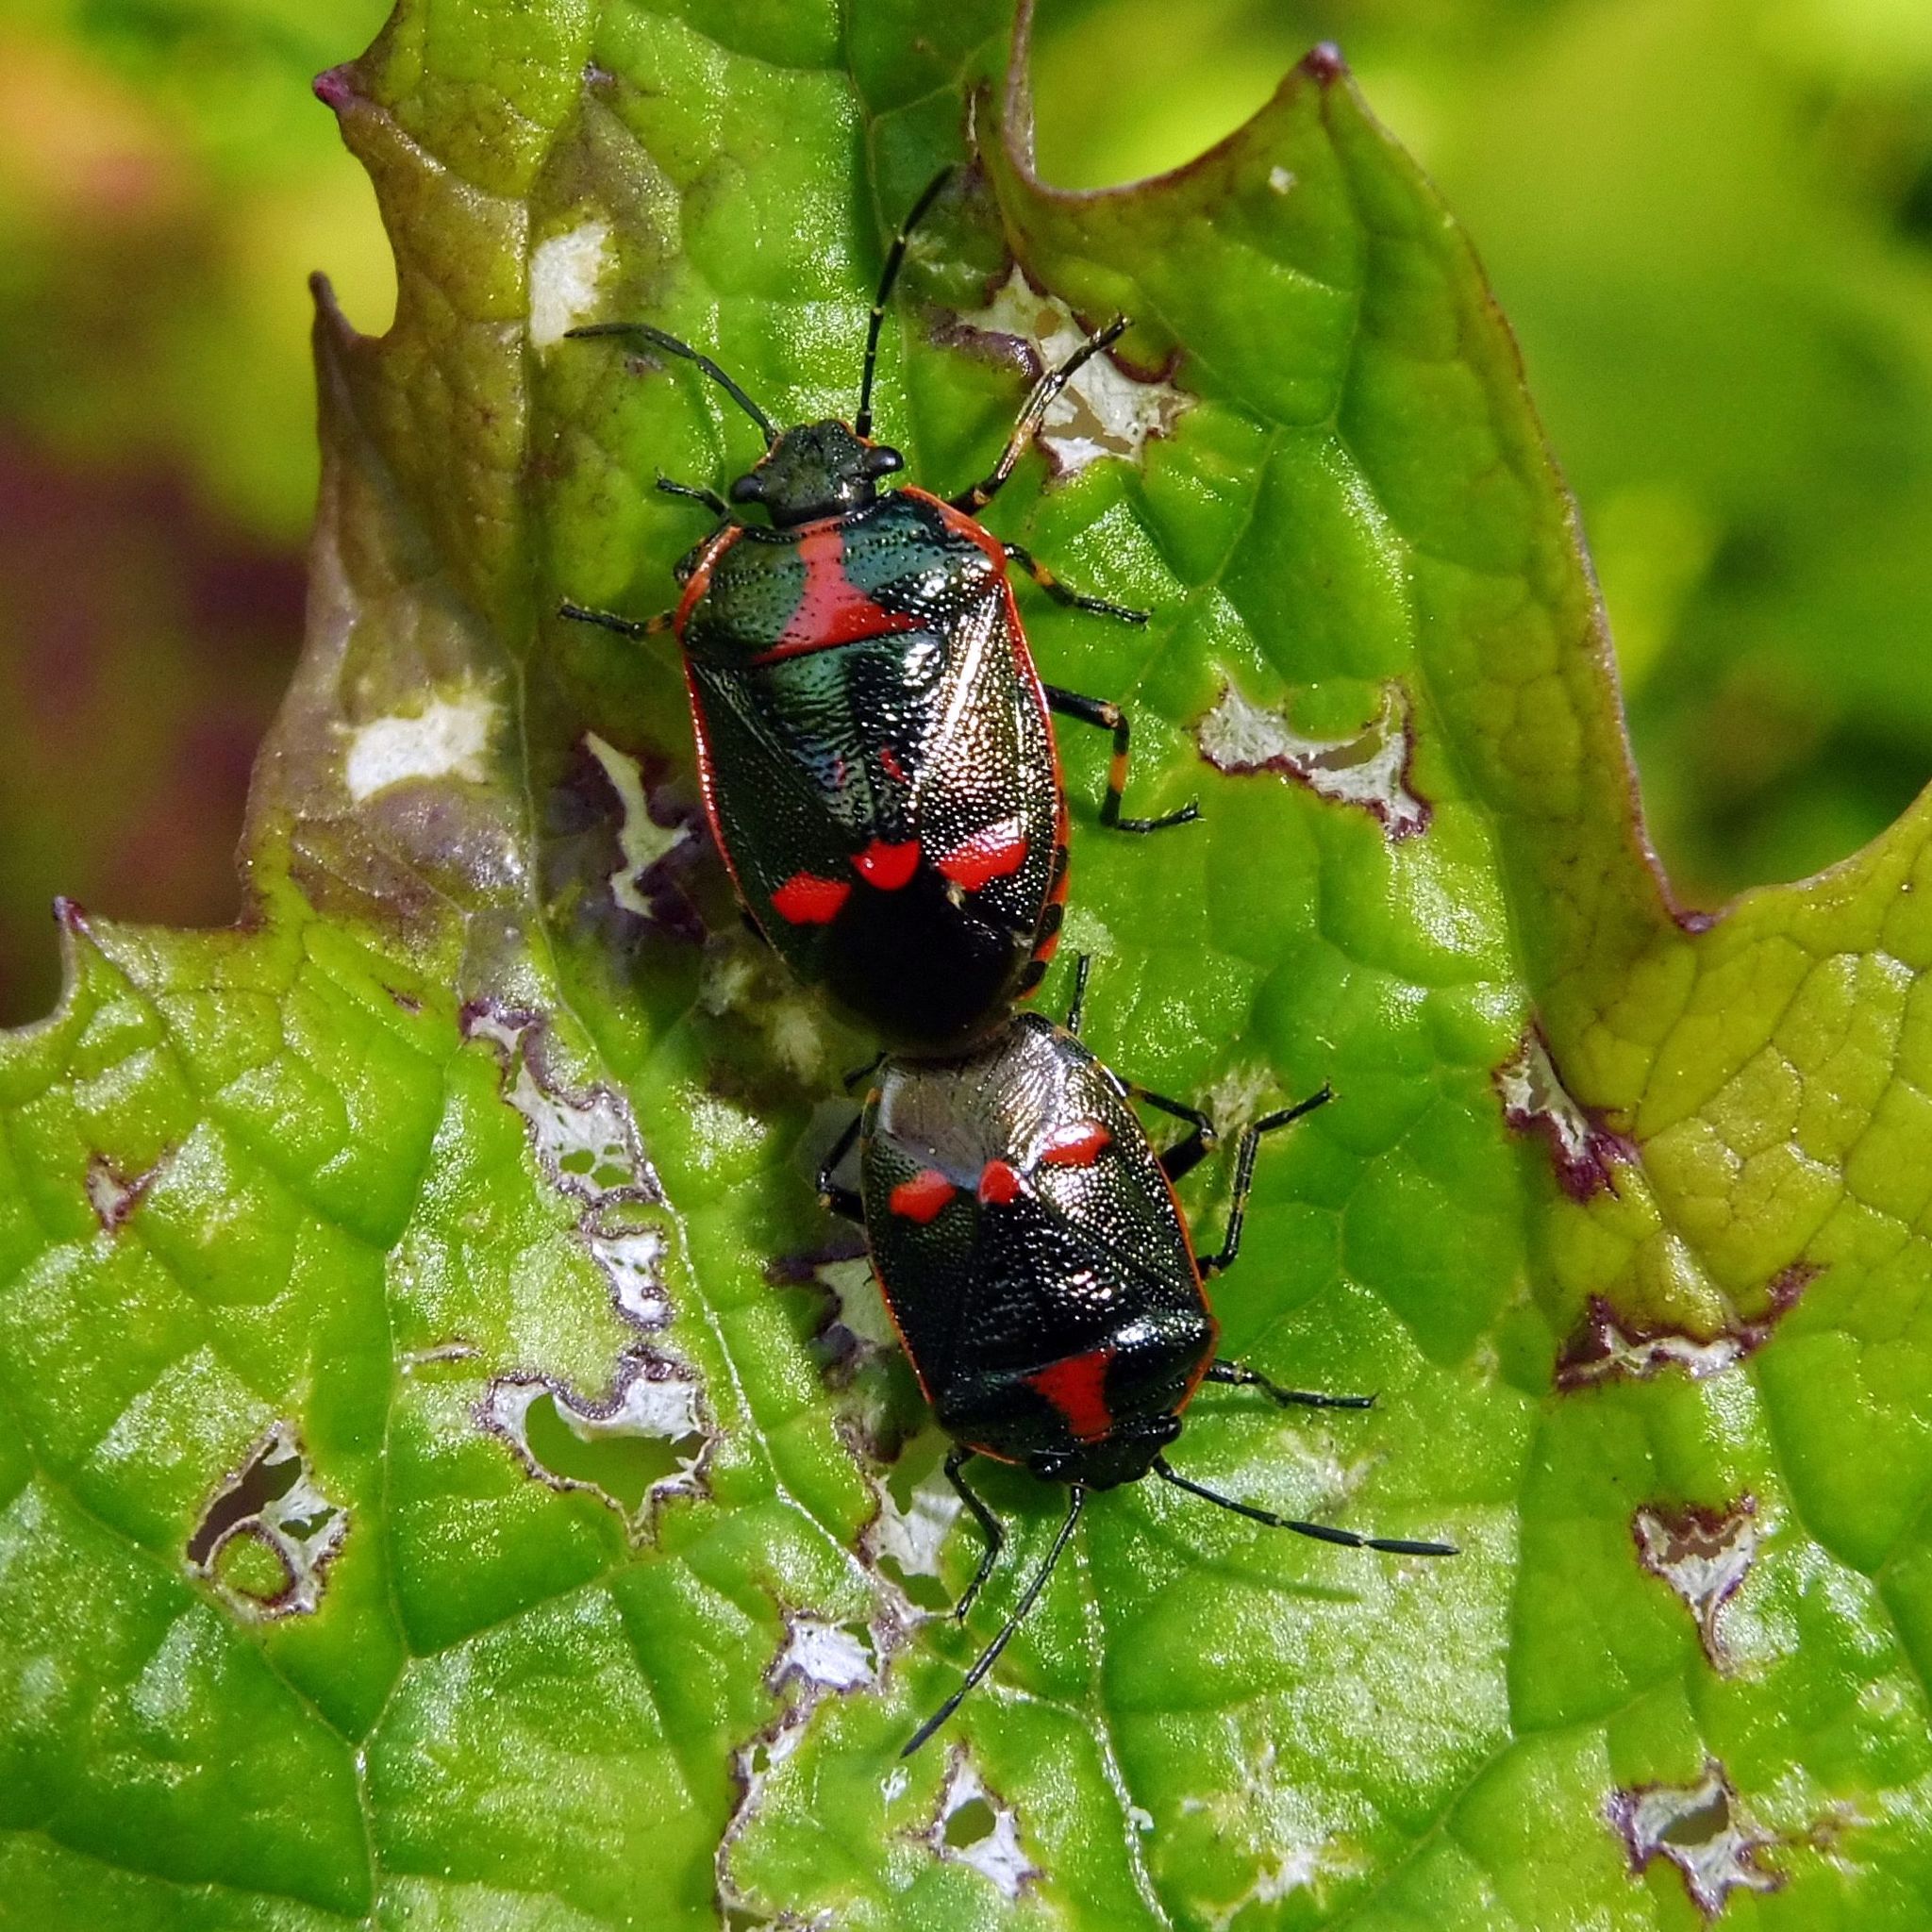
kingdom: Animalia
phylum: Arthropoda
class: Insecta
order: Hemiptera
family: Pentatomidae
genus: Eurydema
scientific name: Eurydema oleracea
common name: Cabbage bug
